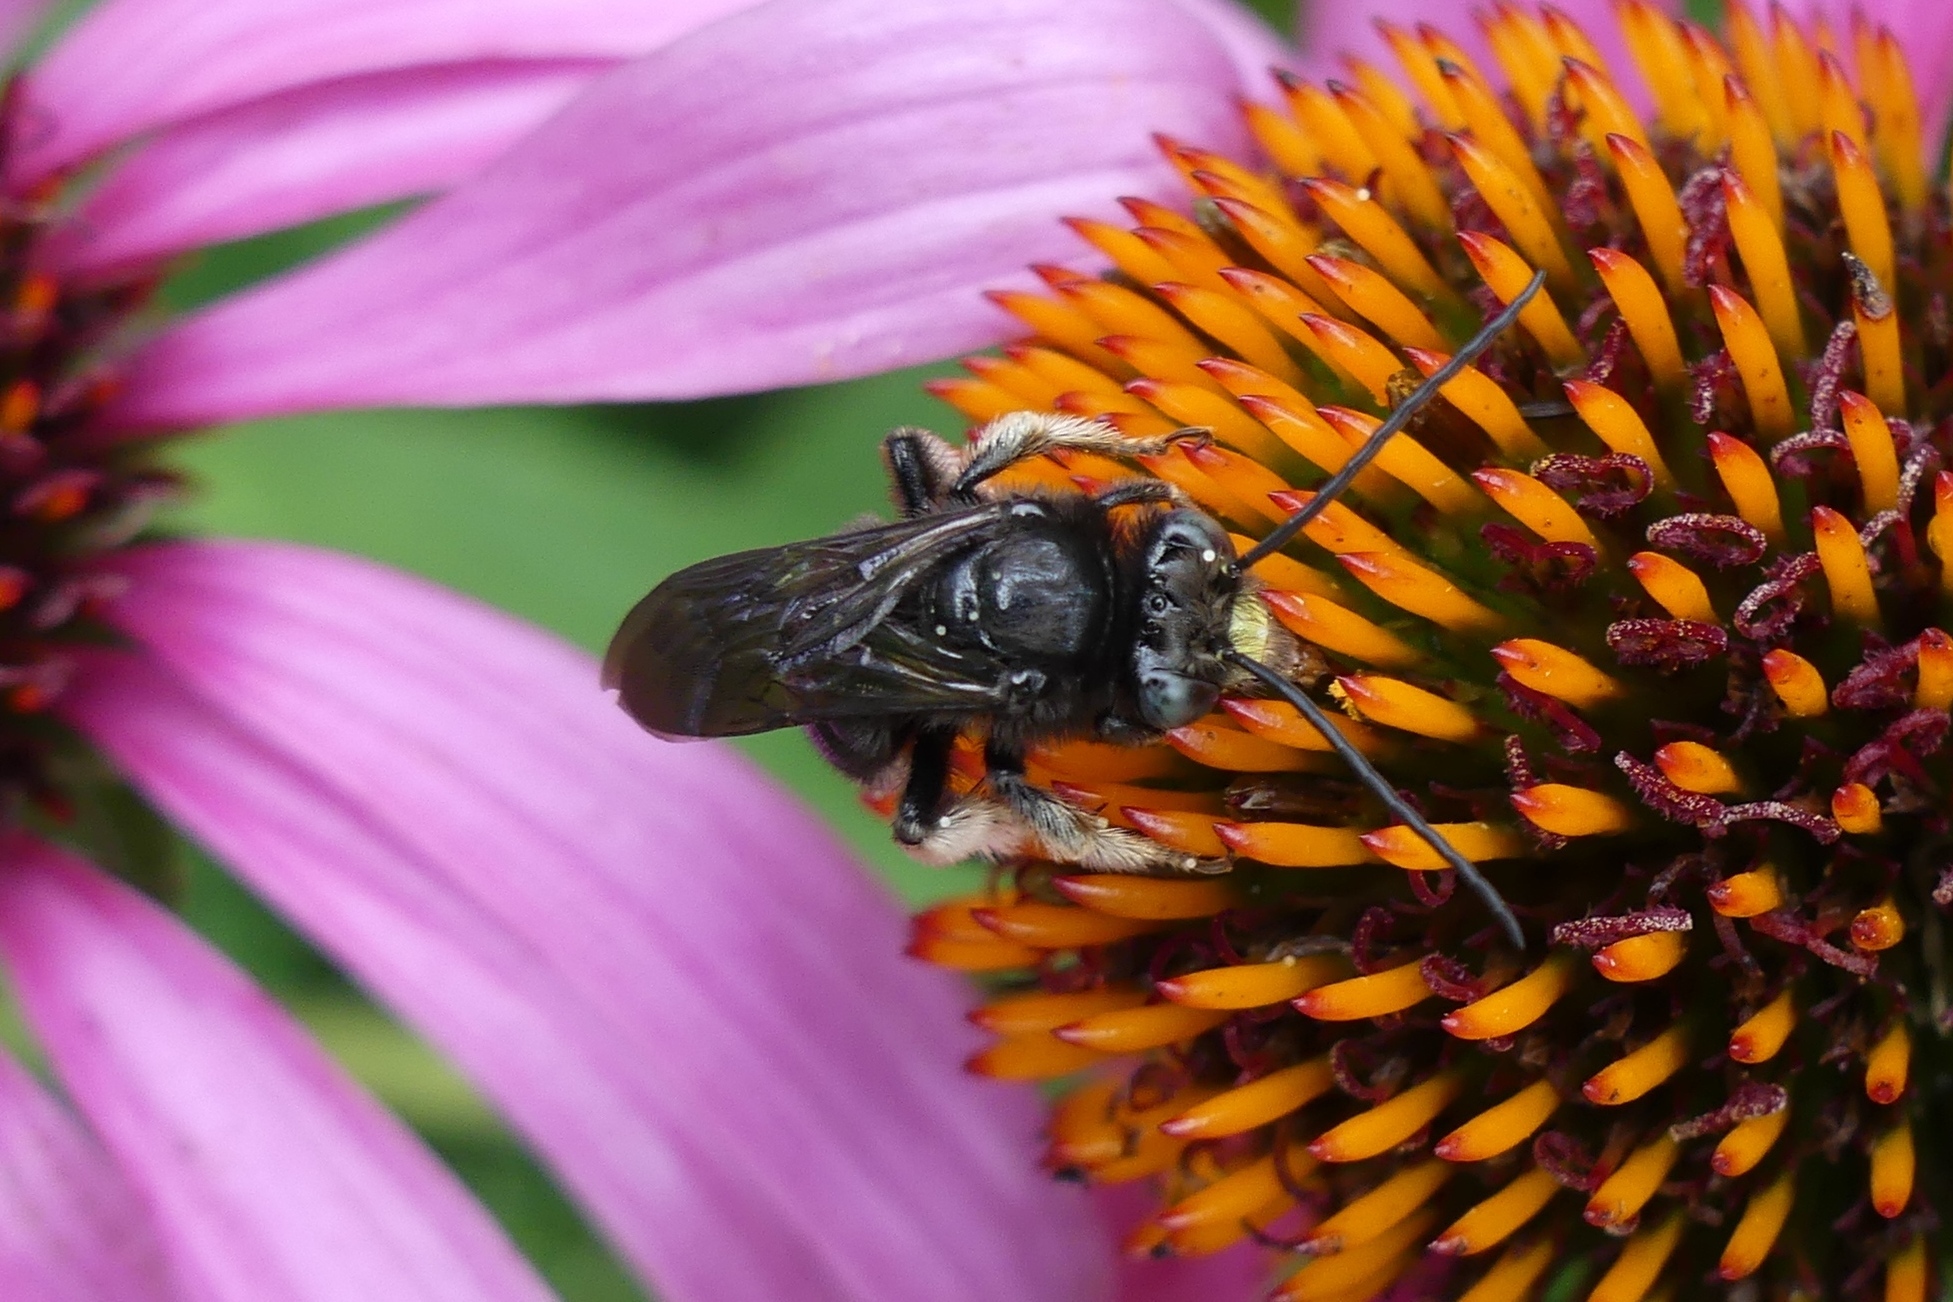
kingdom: Animalia
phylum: Arthropoda
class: Insecta
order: Hymenoptera
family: Apidae
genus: Melissodes
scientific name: Melissodes bimaculatus
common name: Two-spotted long-horned bee
